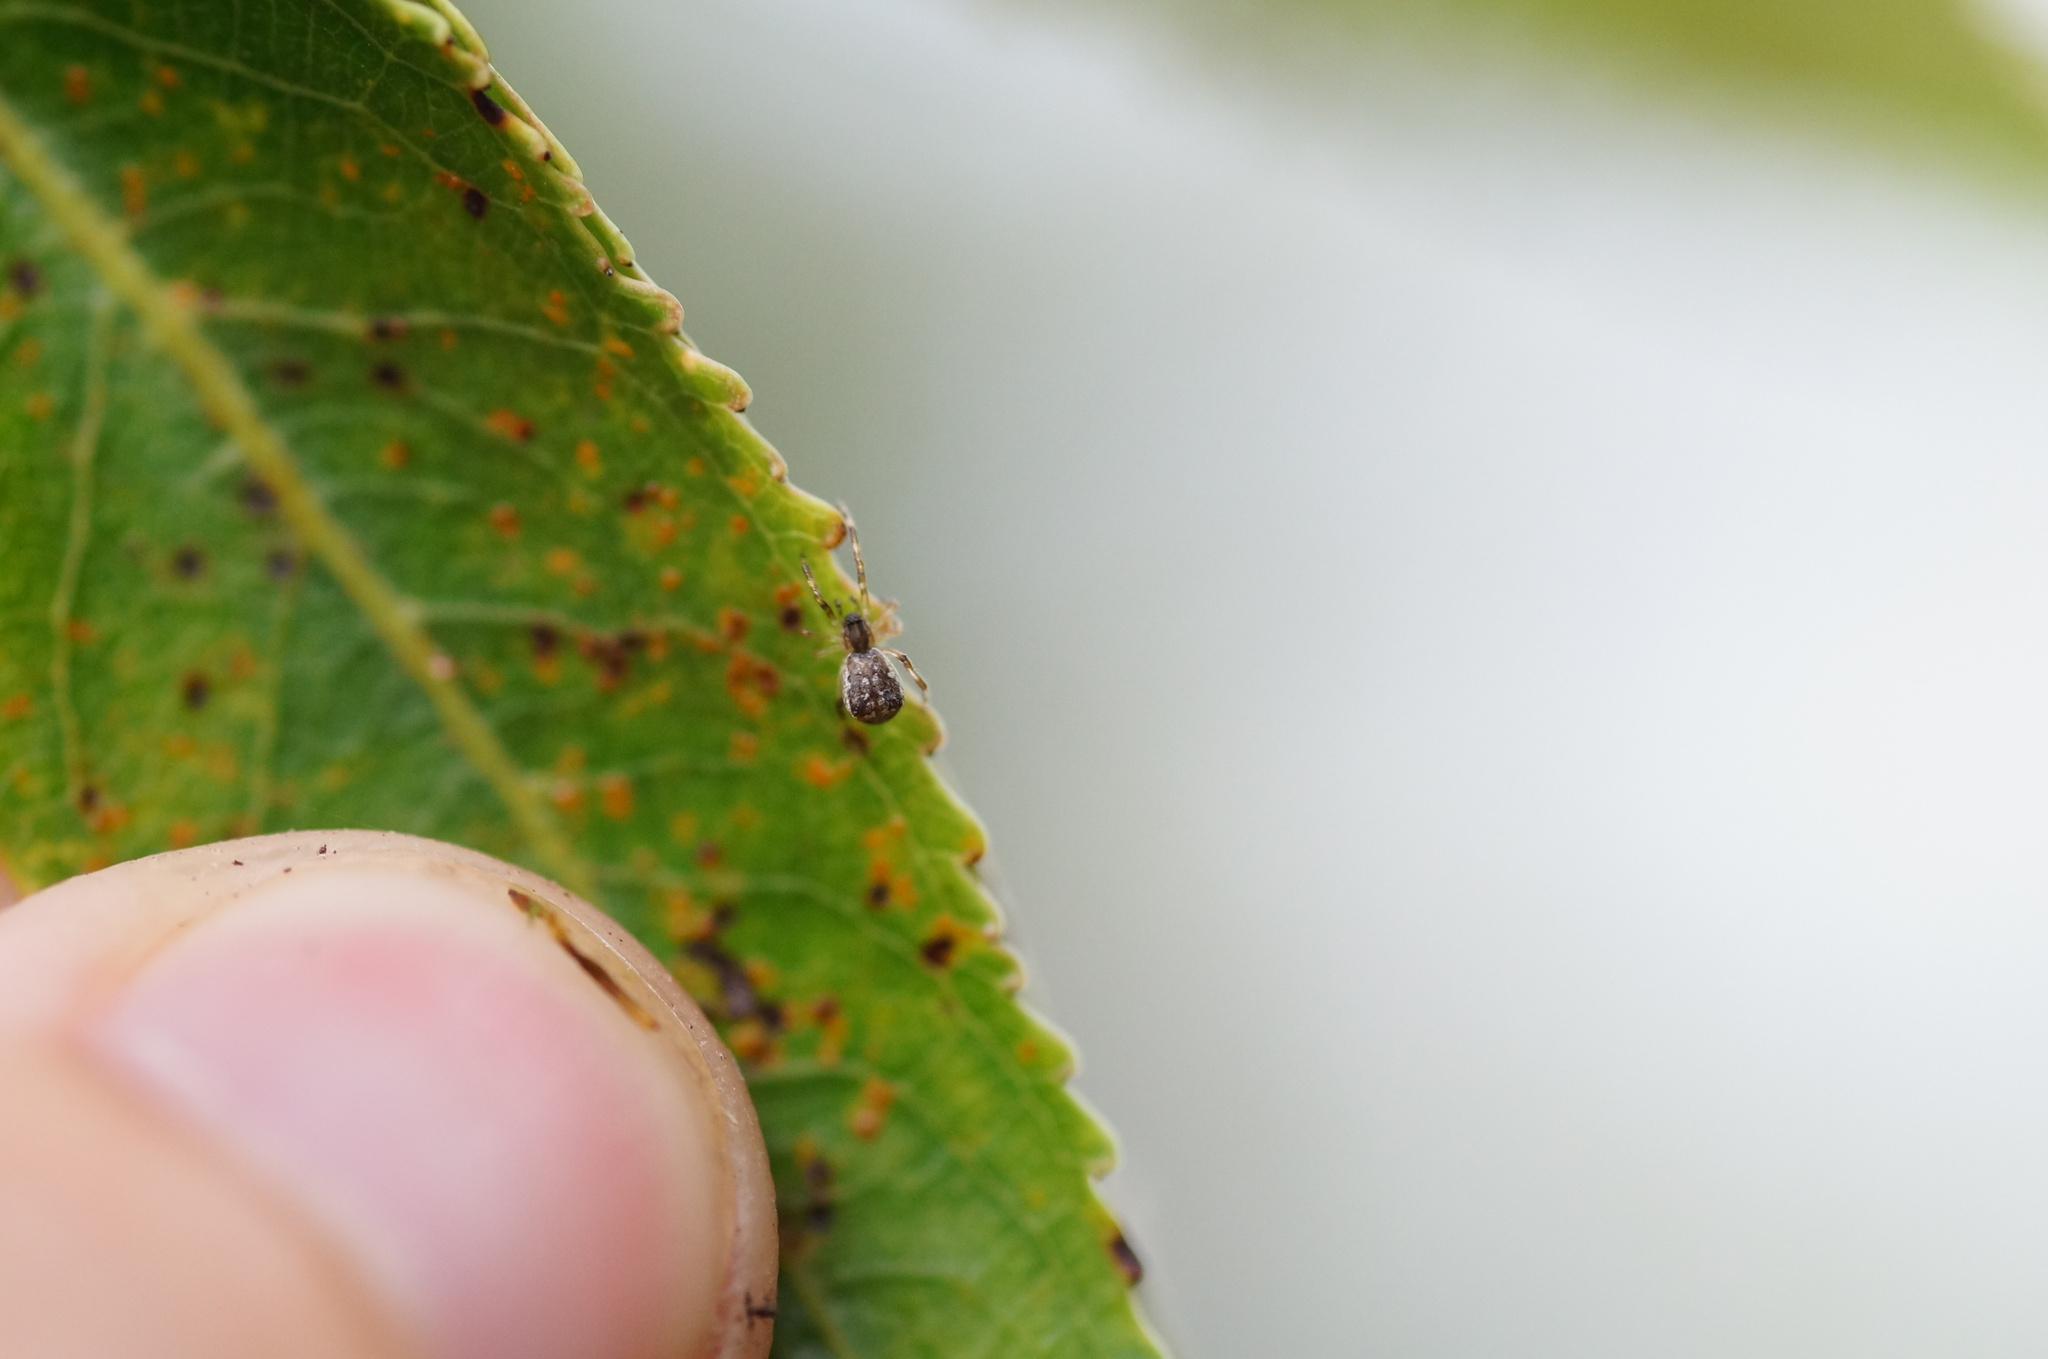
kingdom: Animalia
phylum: Arthropoda
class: Arachnida
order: Araneae
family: Theridiidae
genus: Episinus
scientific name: Episinus
